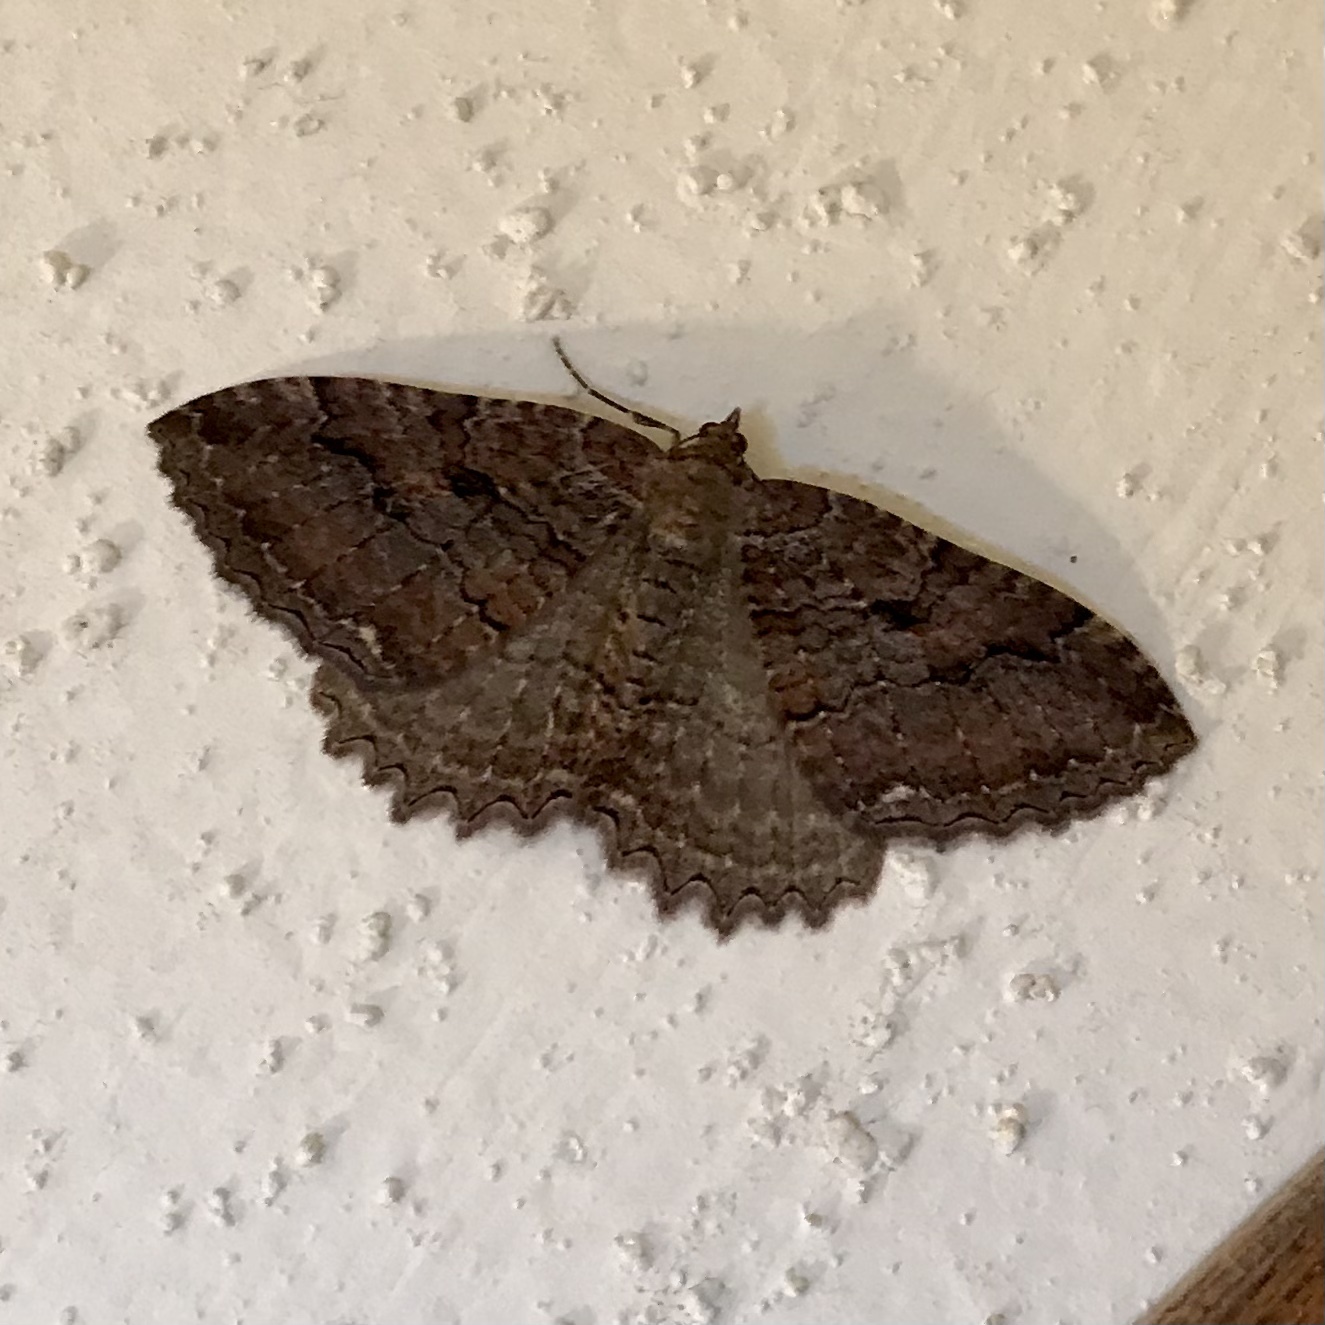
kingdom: Animalia
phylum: Arthropoda
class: Insecta
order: Lepidoptera
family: Geometridae
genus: Triphosa
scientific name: Triphosa haesitata
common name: Tissue moth
